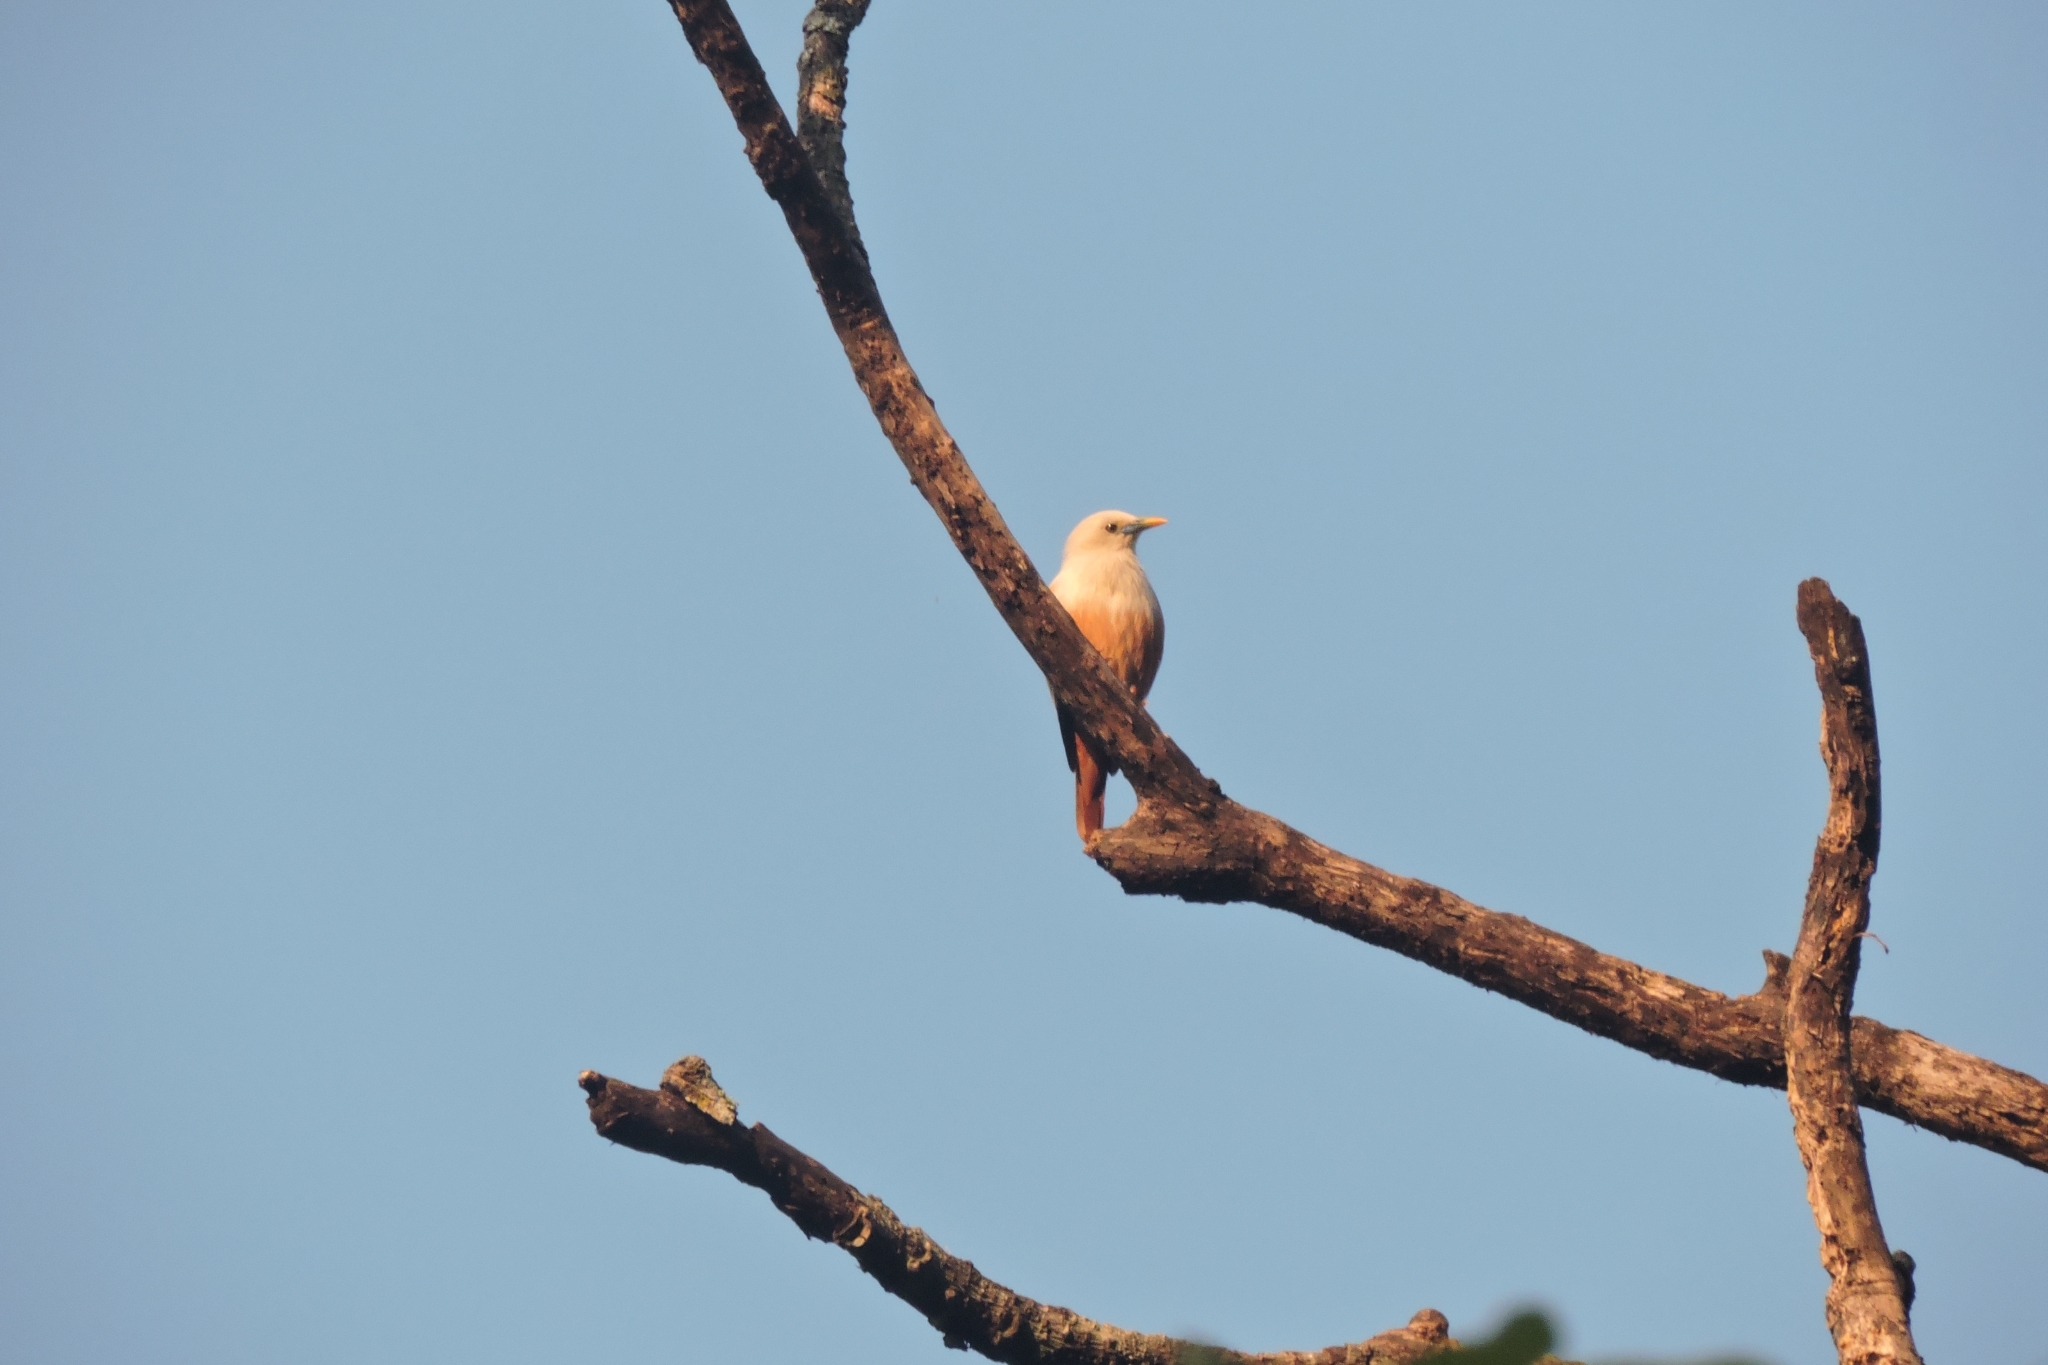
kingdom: Animalia
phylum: Chordata
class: Aves
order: Passeriformes
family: Sturnidae
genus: Sturnia
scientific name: Sturnia blythii
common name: Malabar starling
